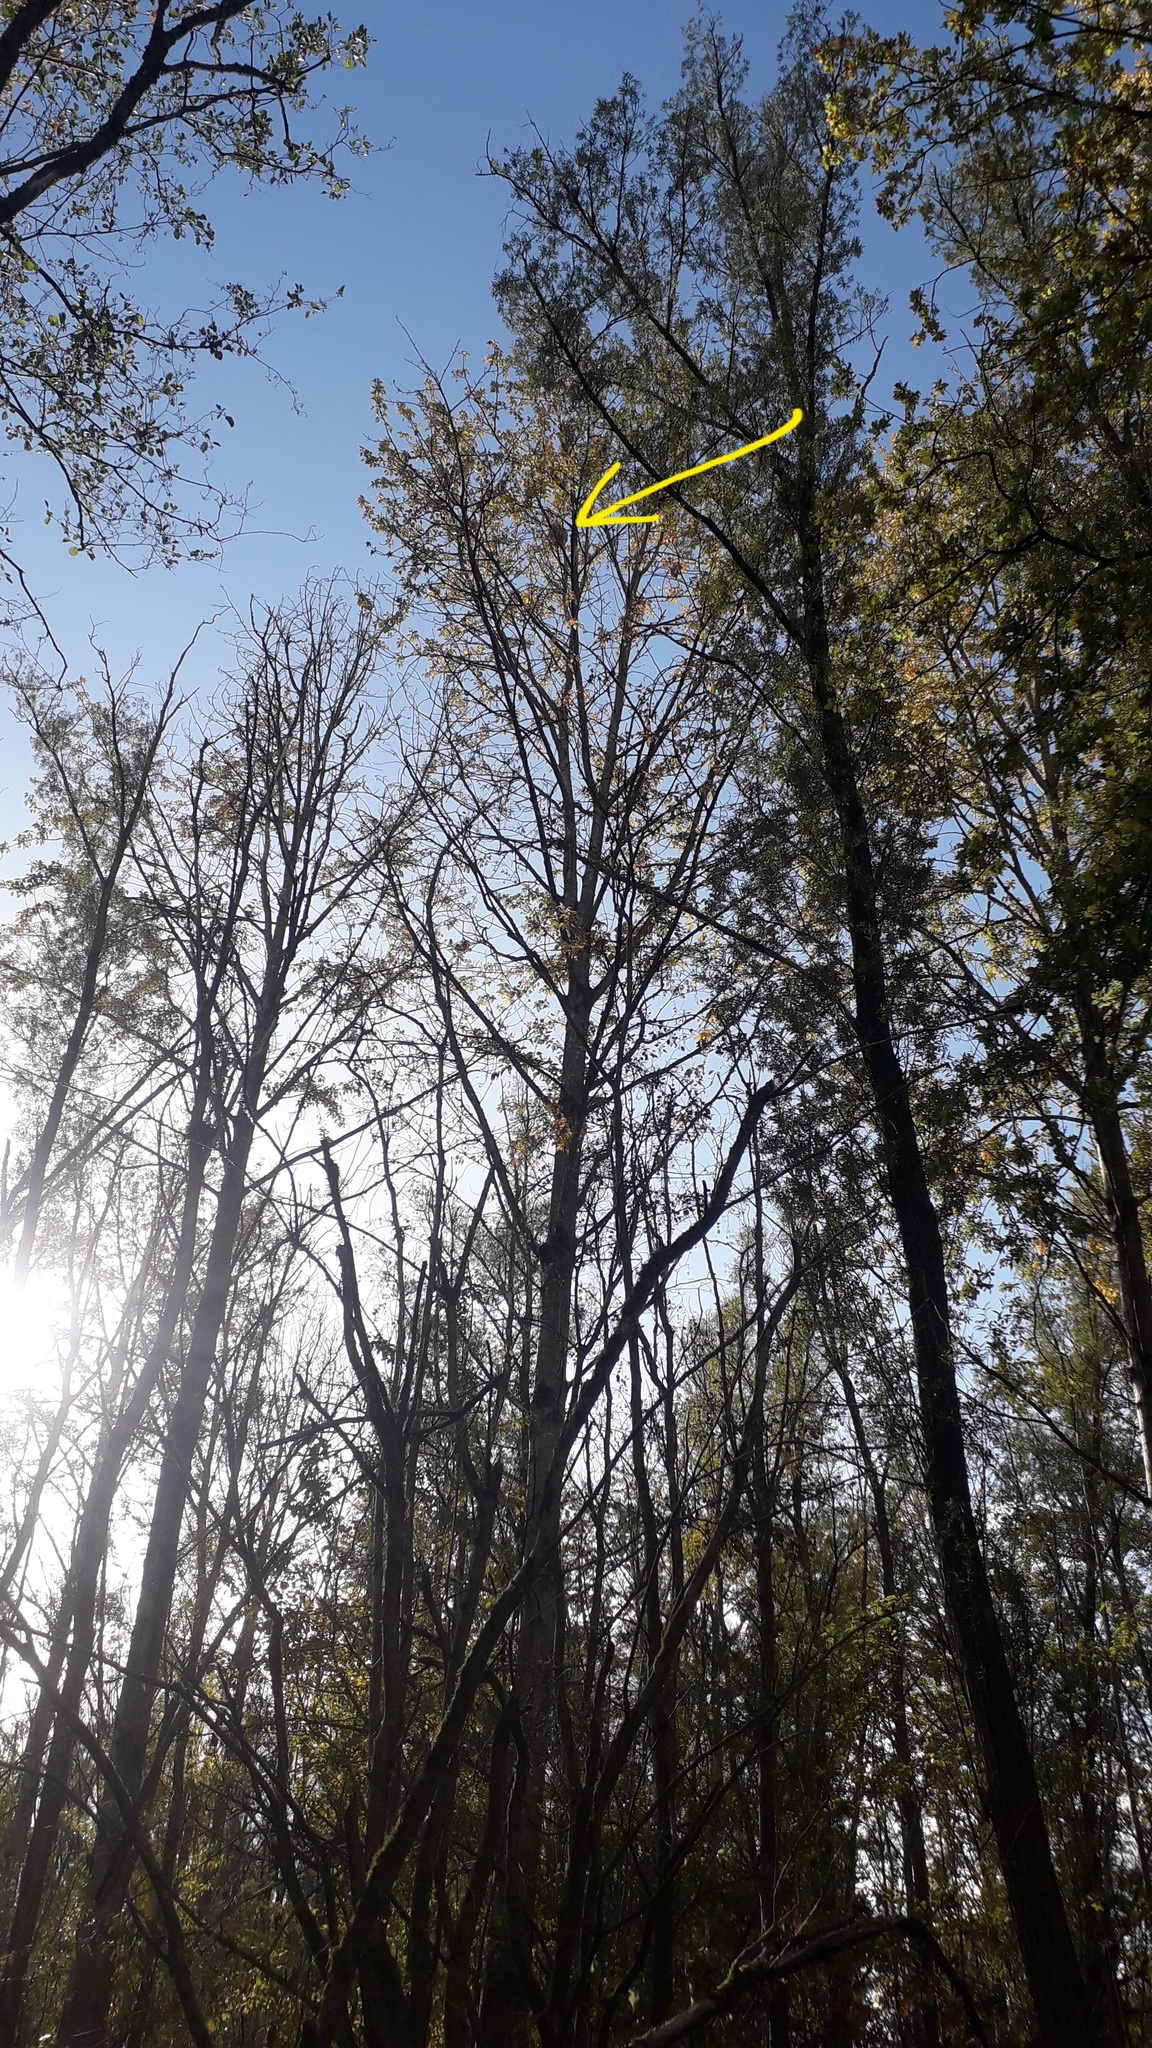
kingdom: Animalia
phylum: Arthropoda
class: Insecta
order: Hymenoptera
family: Vespidae
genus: Vespa
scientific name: Vespa velutina
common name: Asian hornet
